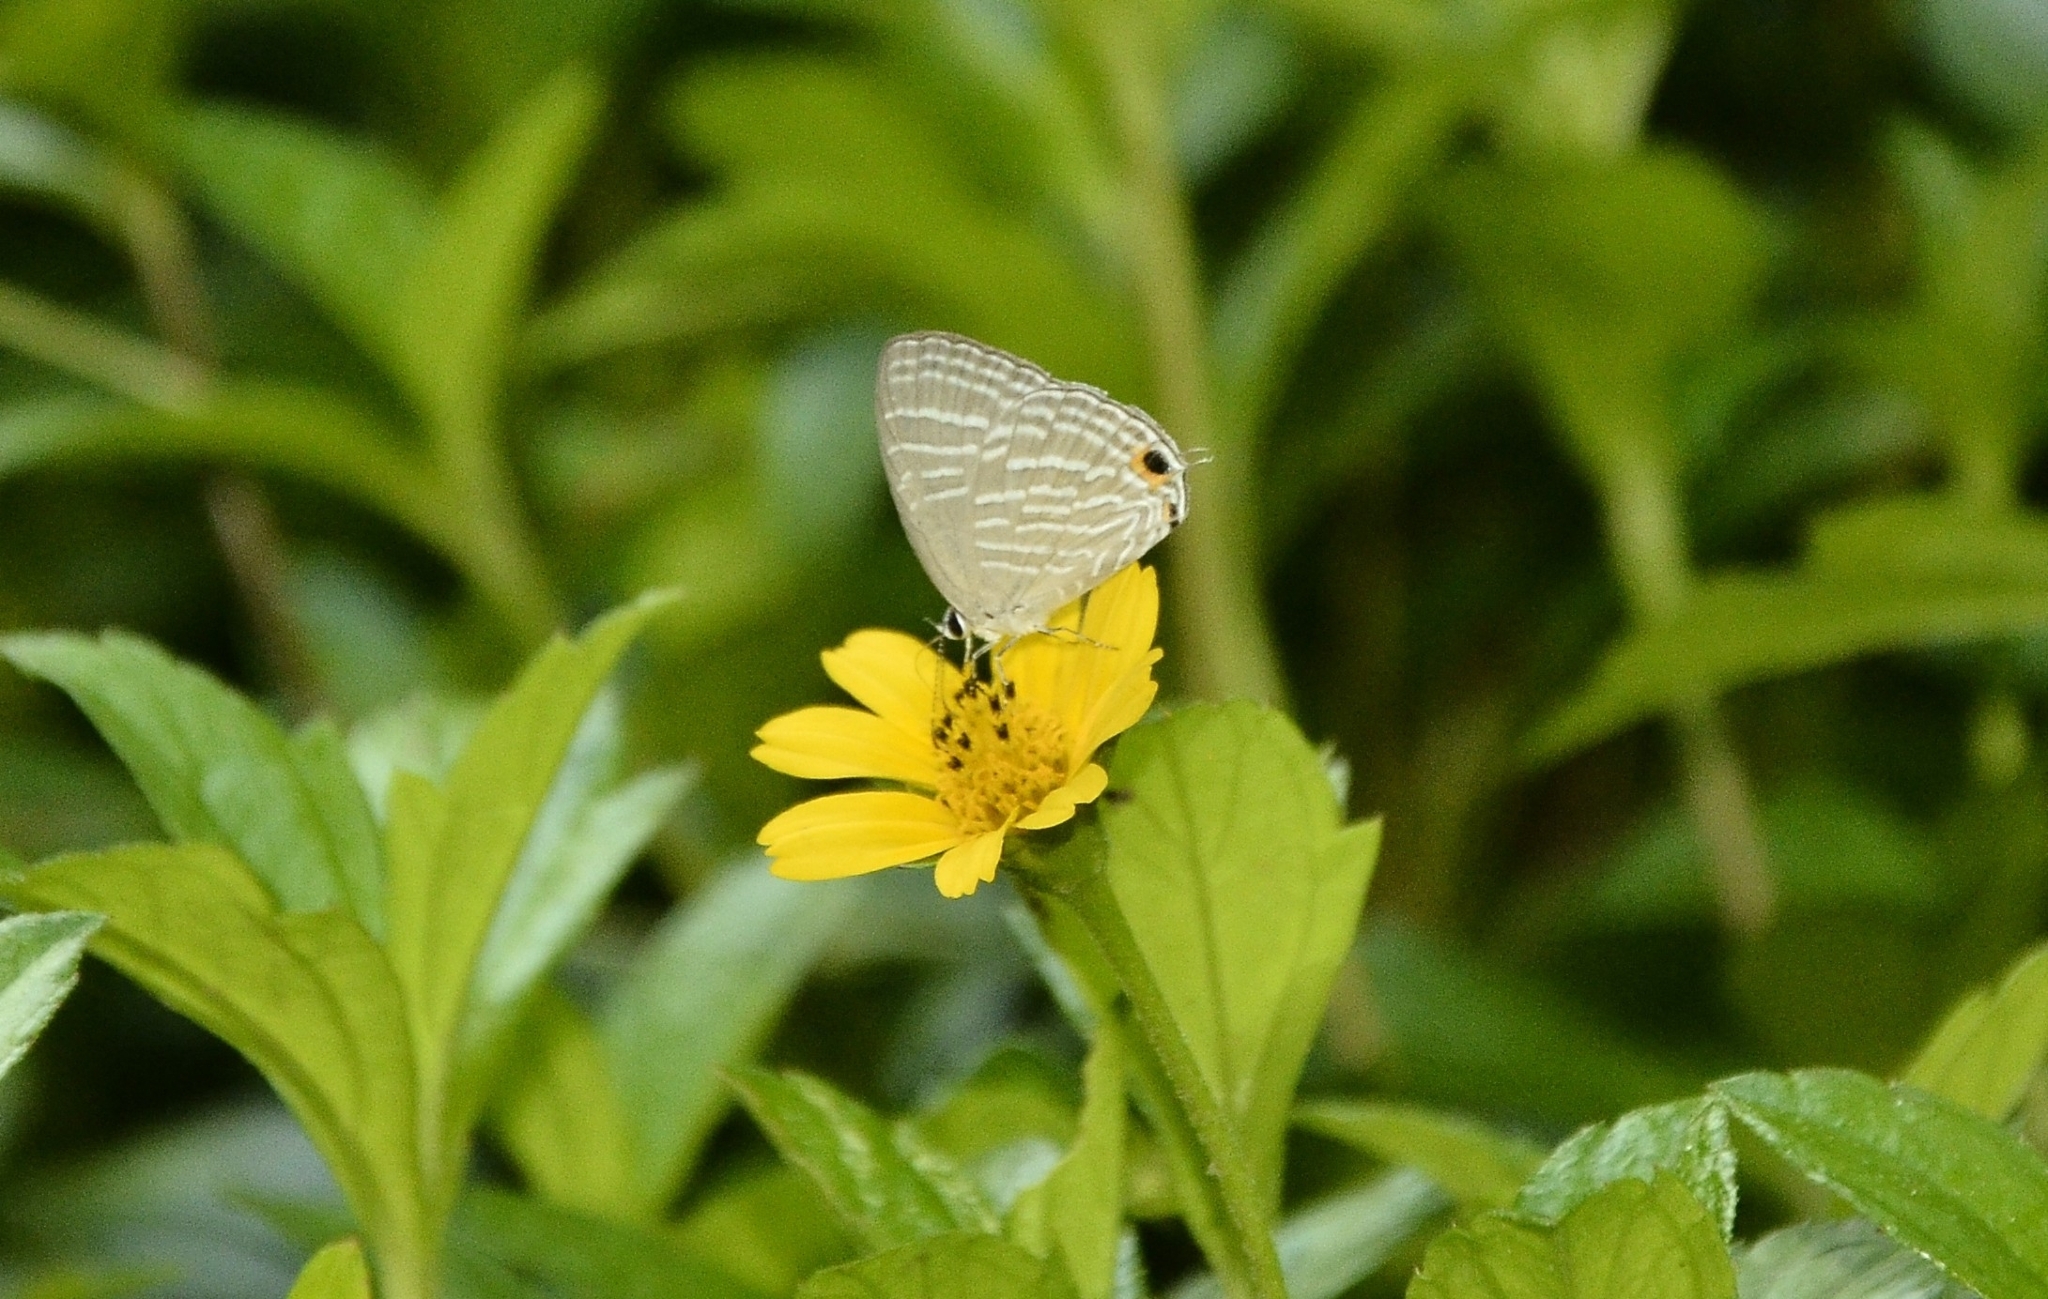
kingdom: Animalia
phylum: Arthropoda
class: Insecta
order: Lepidoptera
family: Lycaenidae
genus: Jamides
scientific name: Jamides celeno
